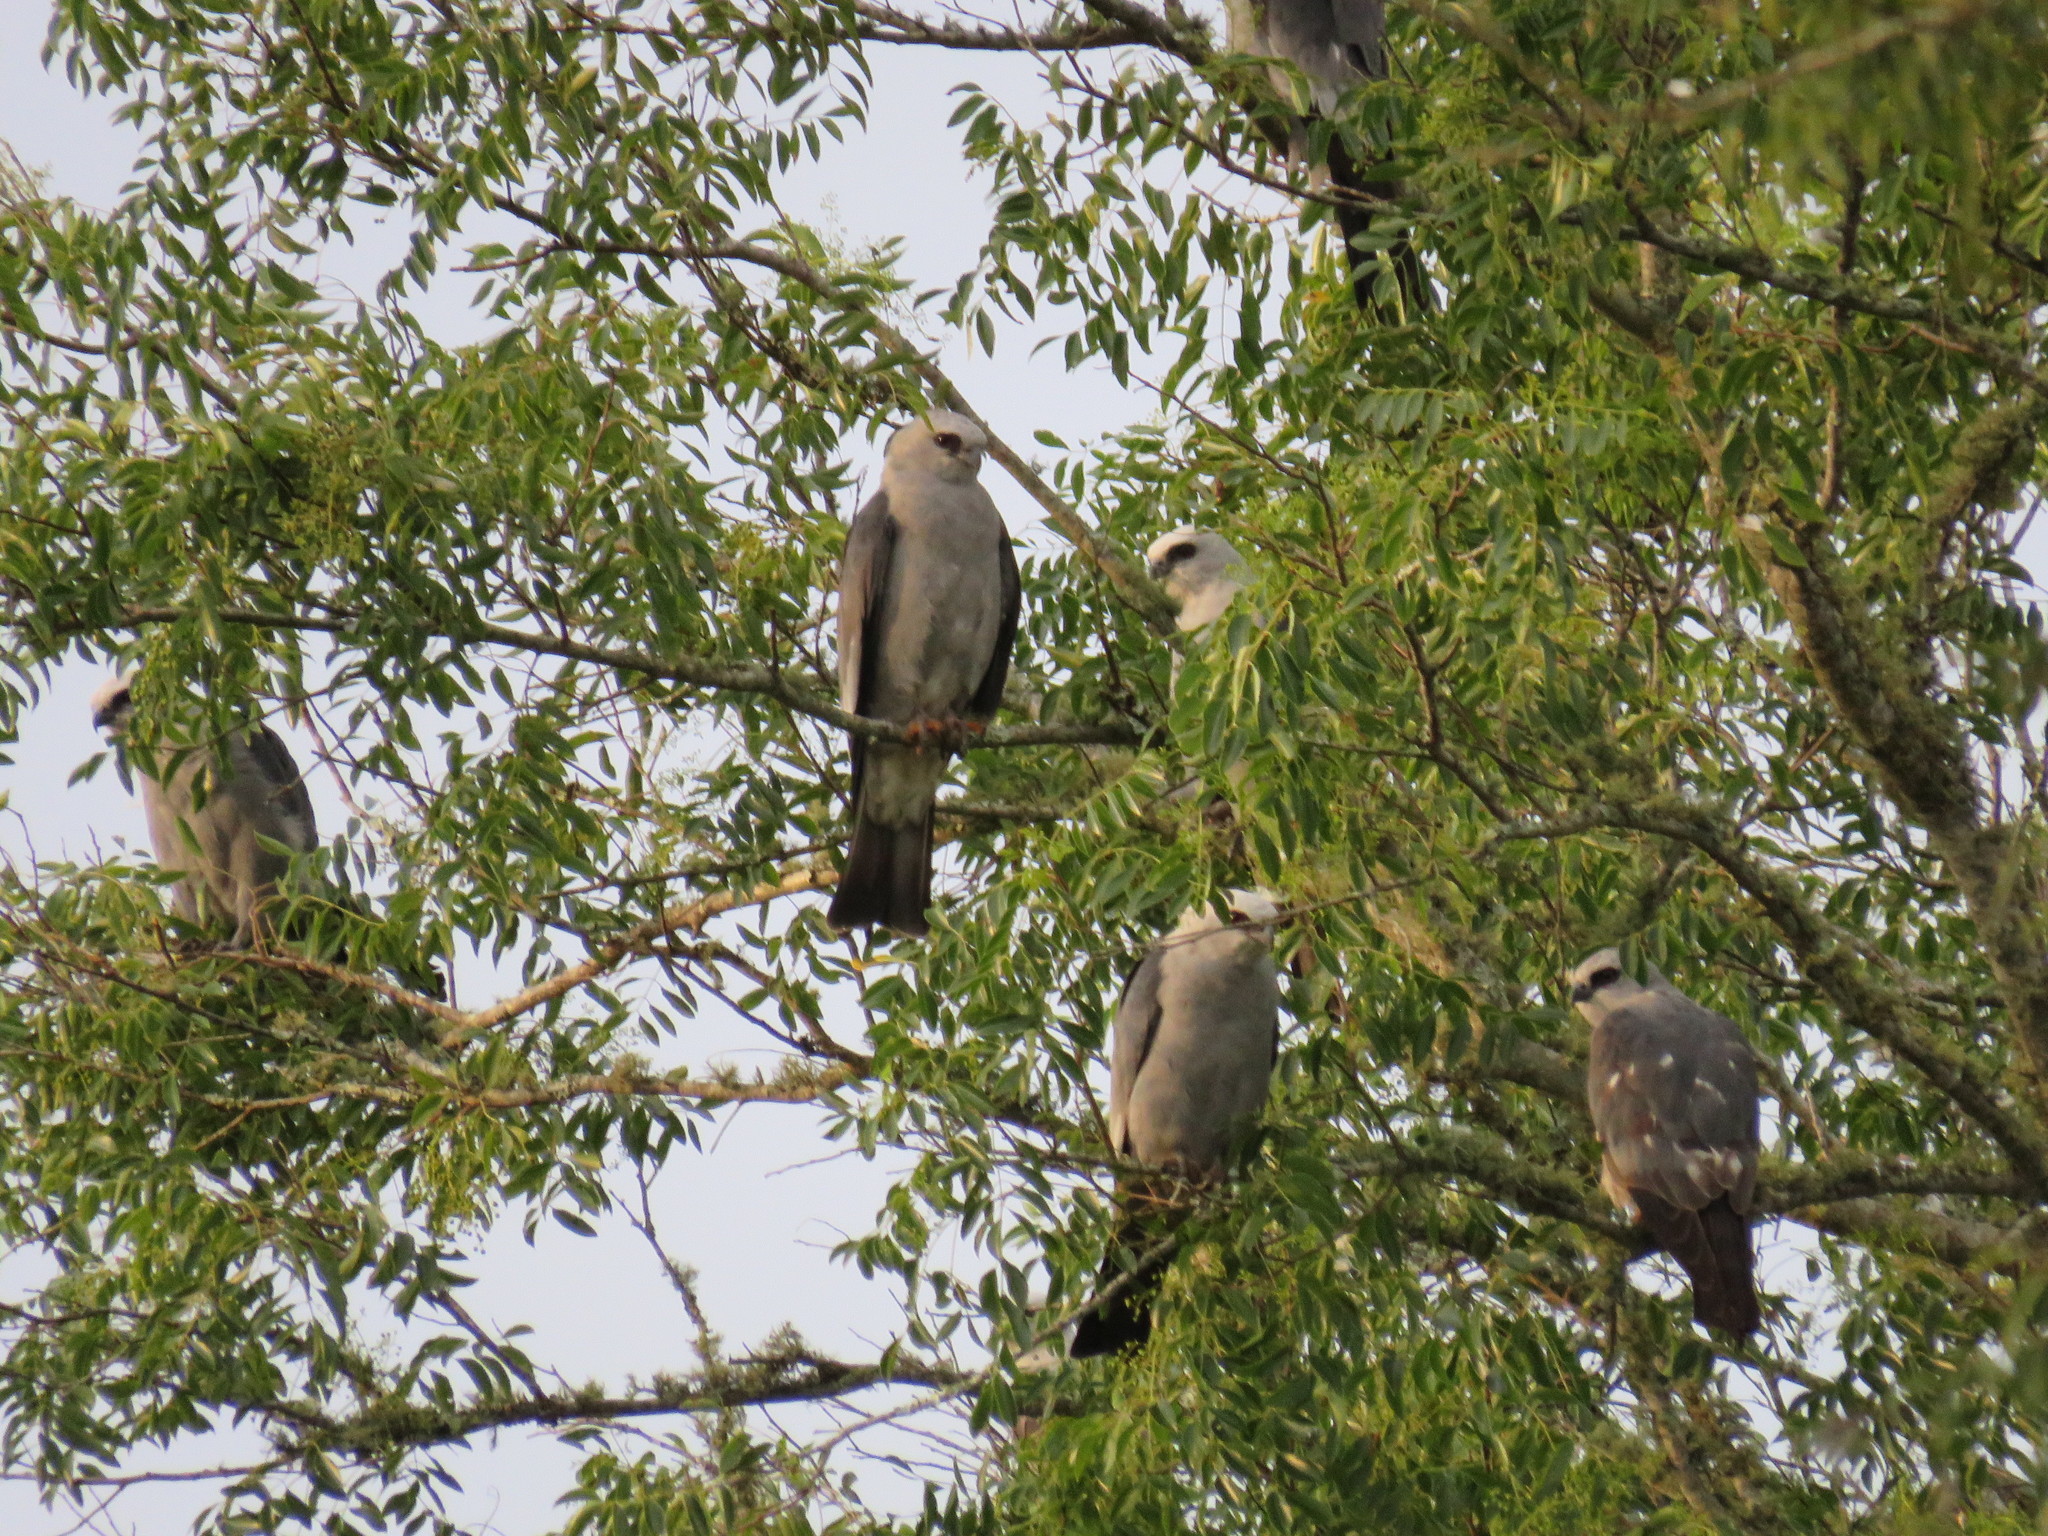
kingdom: Animalia
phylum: Chordata
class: Aves
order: Accipitriformes
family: Accipitridae
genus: Ictinia
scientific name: Ictinia mississippiensis
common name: Mississippi kite
